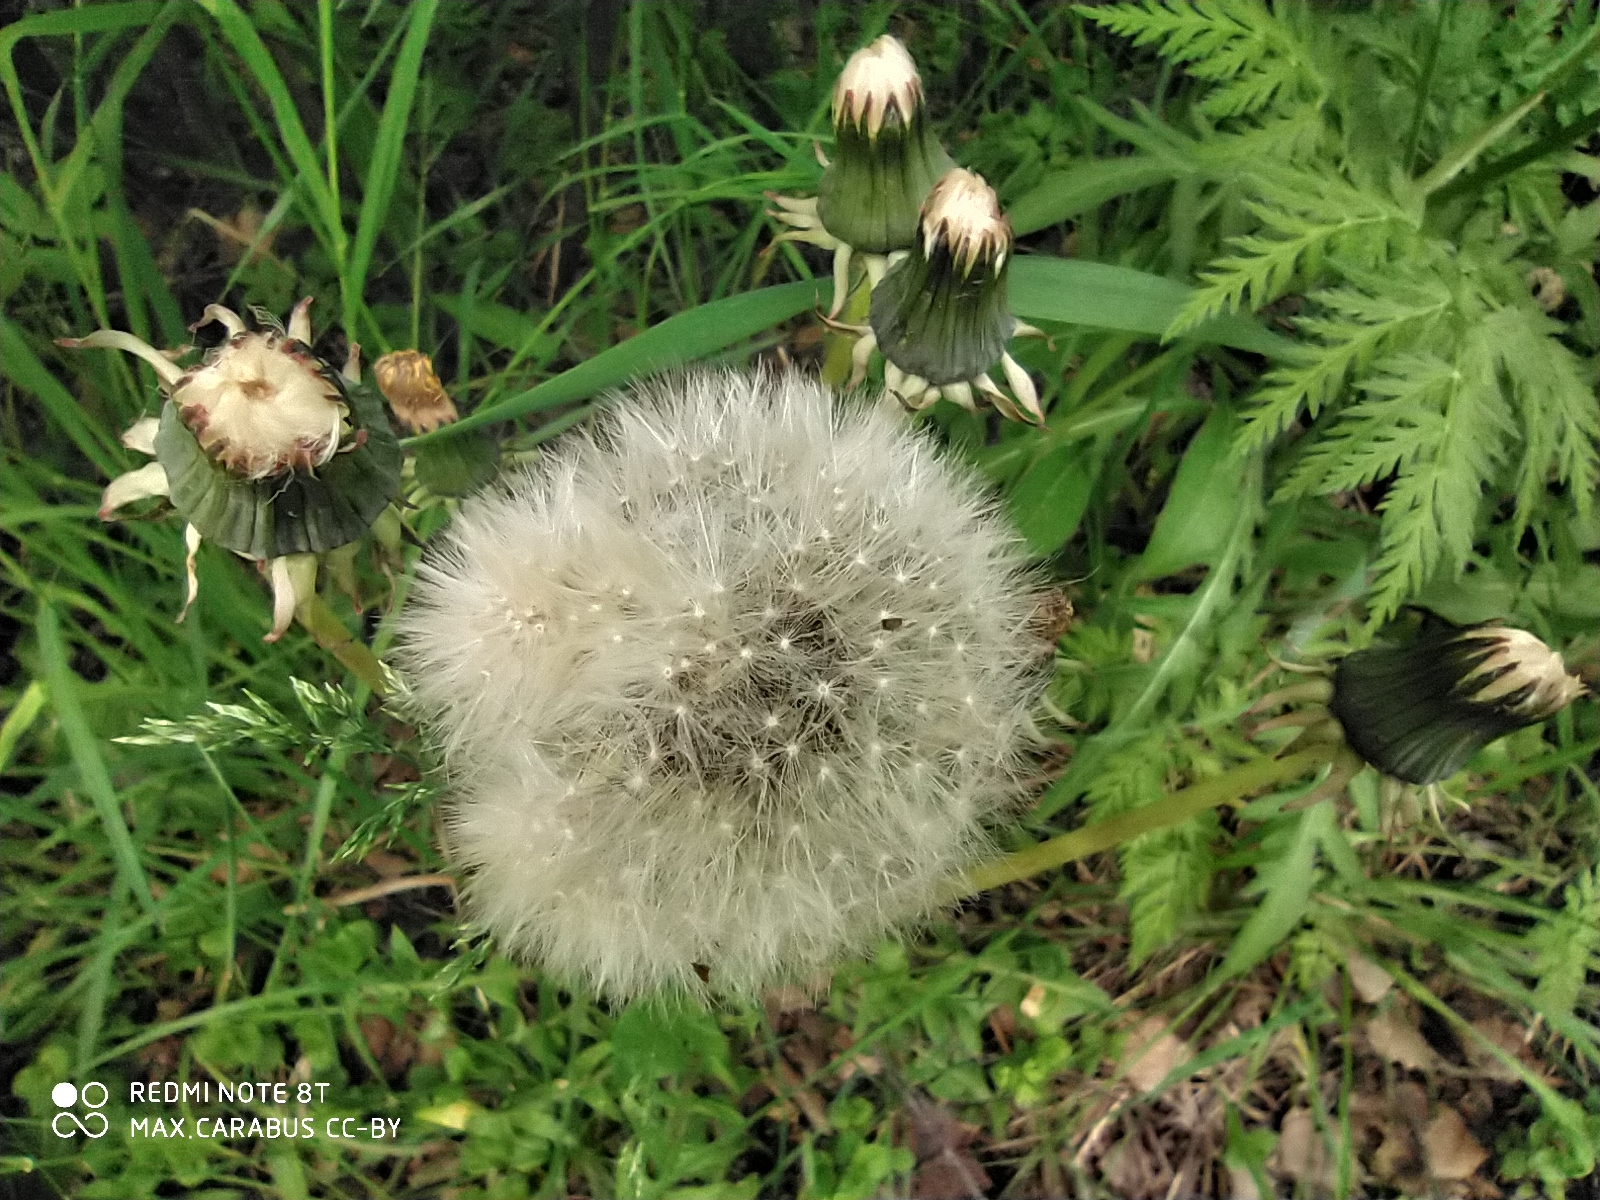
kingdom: Plantae
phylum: Tracheophyta
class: Magnoliopsida
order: Asterales
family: Asteraceae
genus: Taraxacum
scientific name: Taraxacum officinale
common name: Common dandelion
